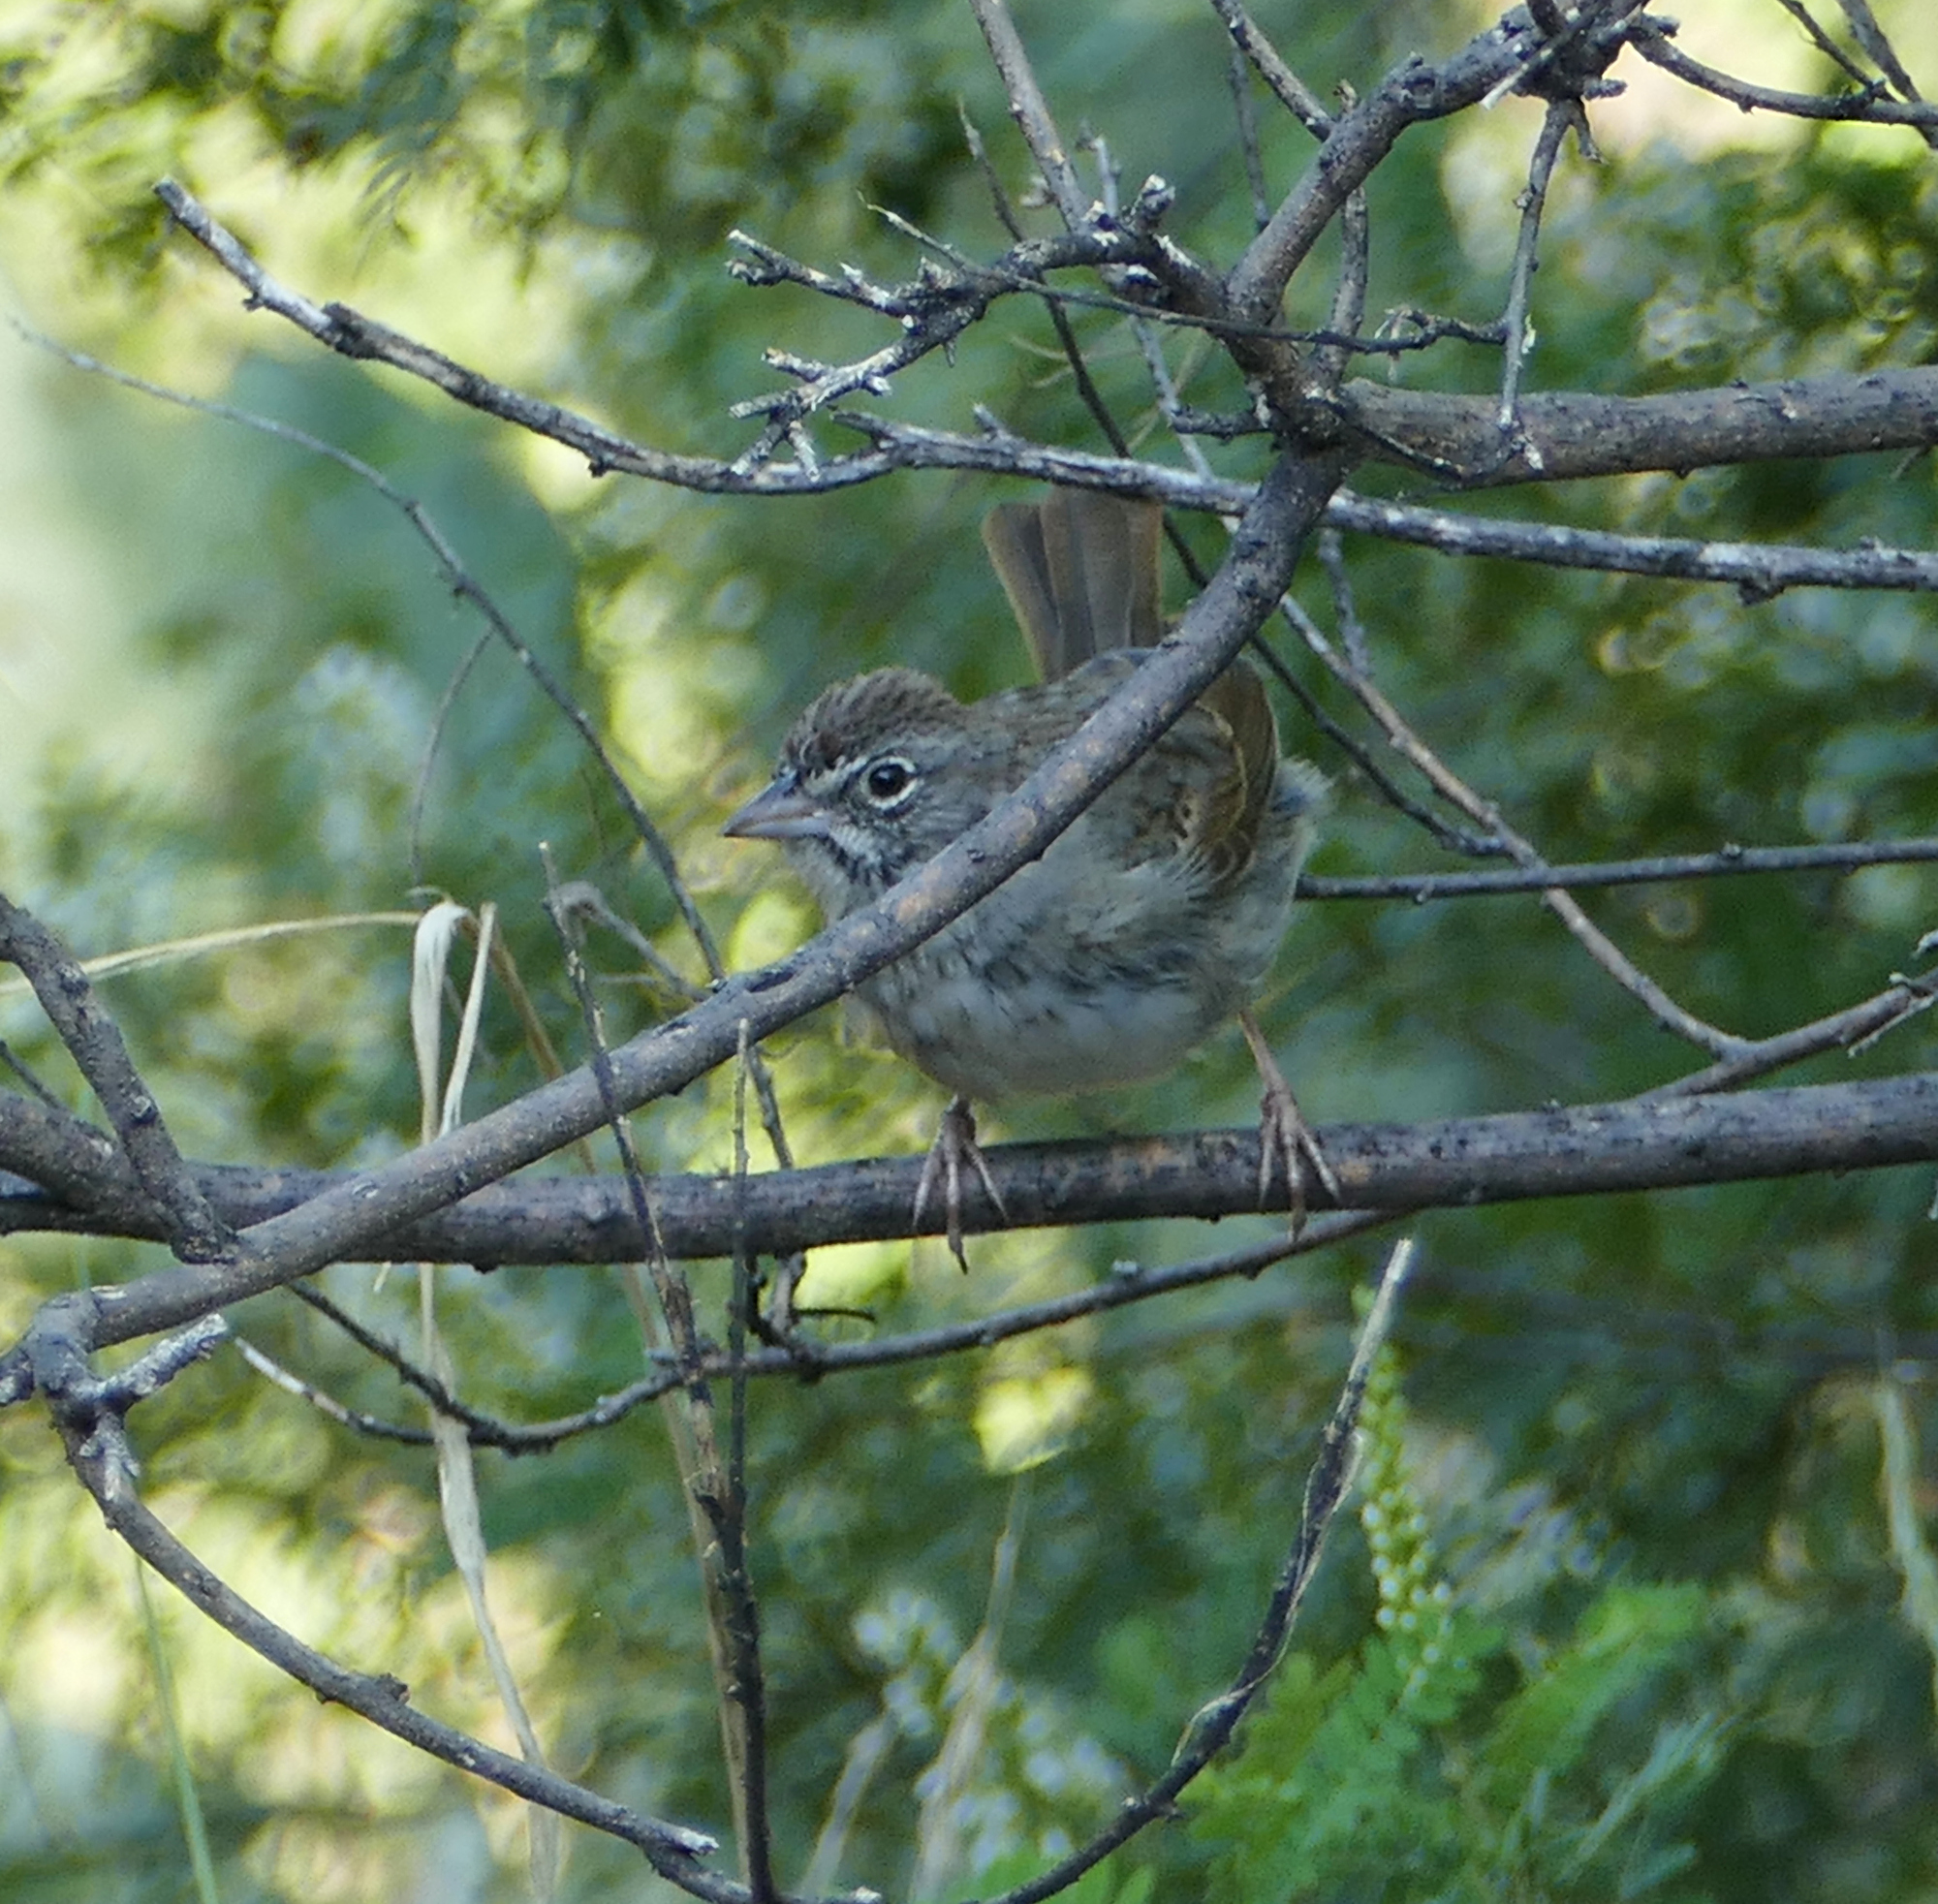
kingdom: Animalia
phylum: Chordata
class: Aves
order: Passeriformes
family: Passerellidae
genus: Aimophila
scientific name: Aimophila ruficeps
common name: Rufous-crowned sparrow
